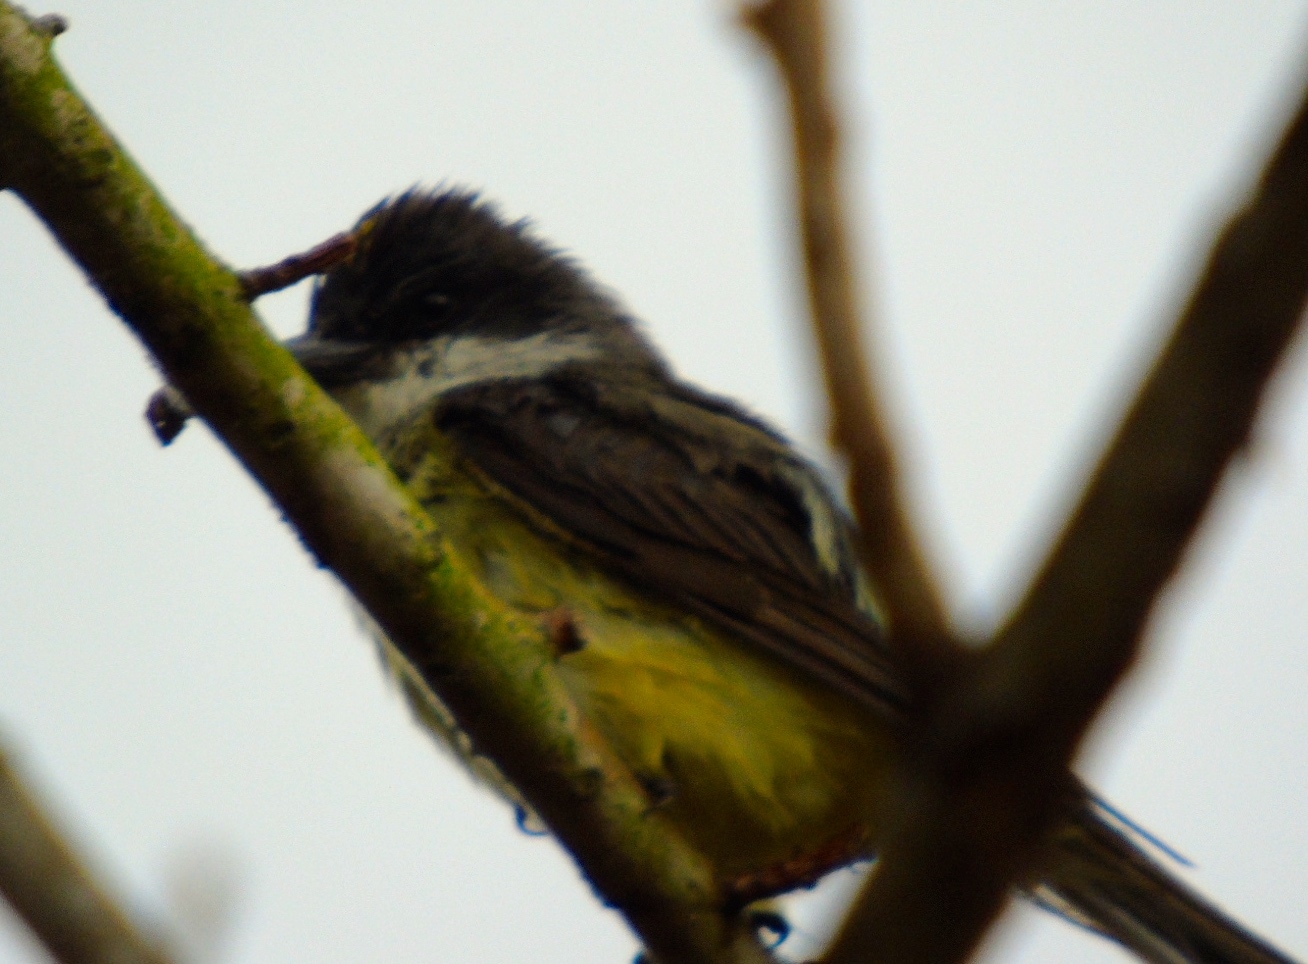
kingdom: Animalia
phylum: Chordata
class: Aves
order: Passeriformes
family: Tyrannidae
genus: Tyrannus
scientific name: Tyrannus crassirostris
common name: Thick-billed kingbird
